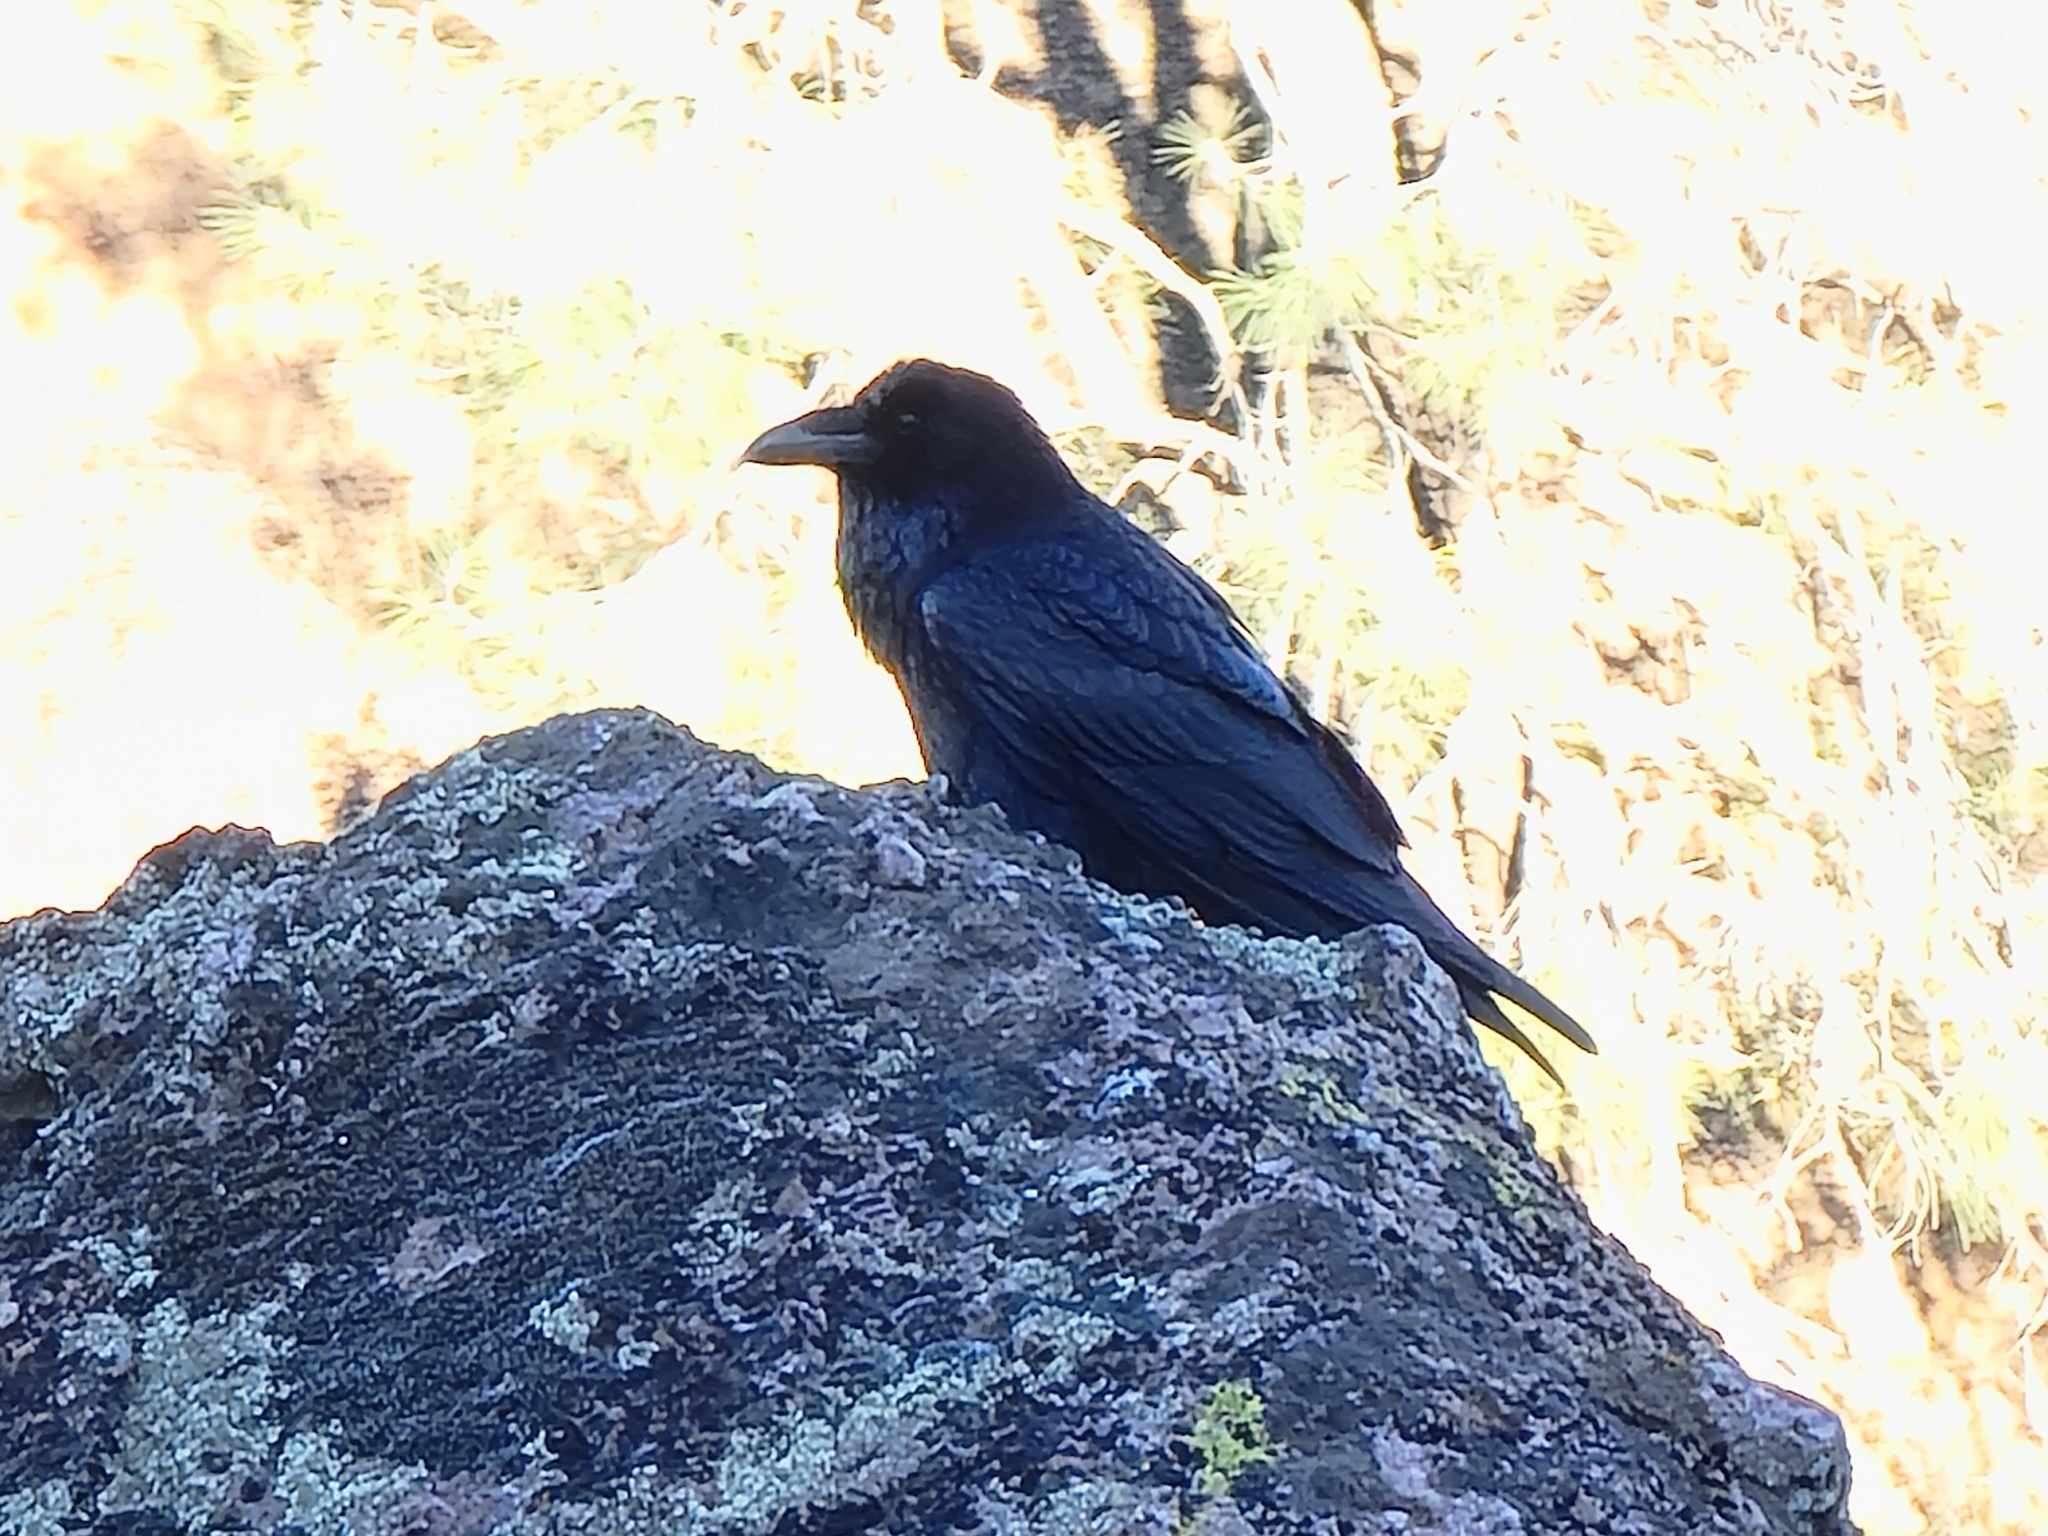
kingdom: Animalia
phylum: Chordata
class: Aves
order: Passeriformes
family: Corvidae
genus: Corvus
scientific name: Corvus corax
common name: Common raven
